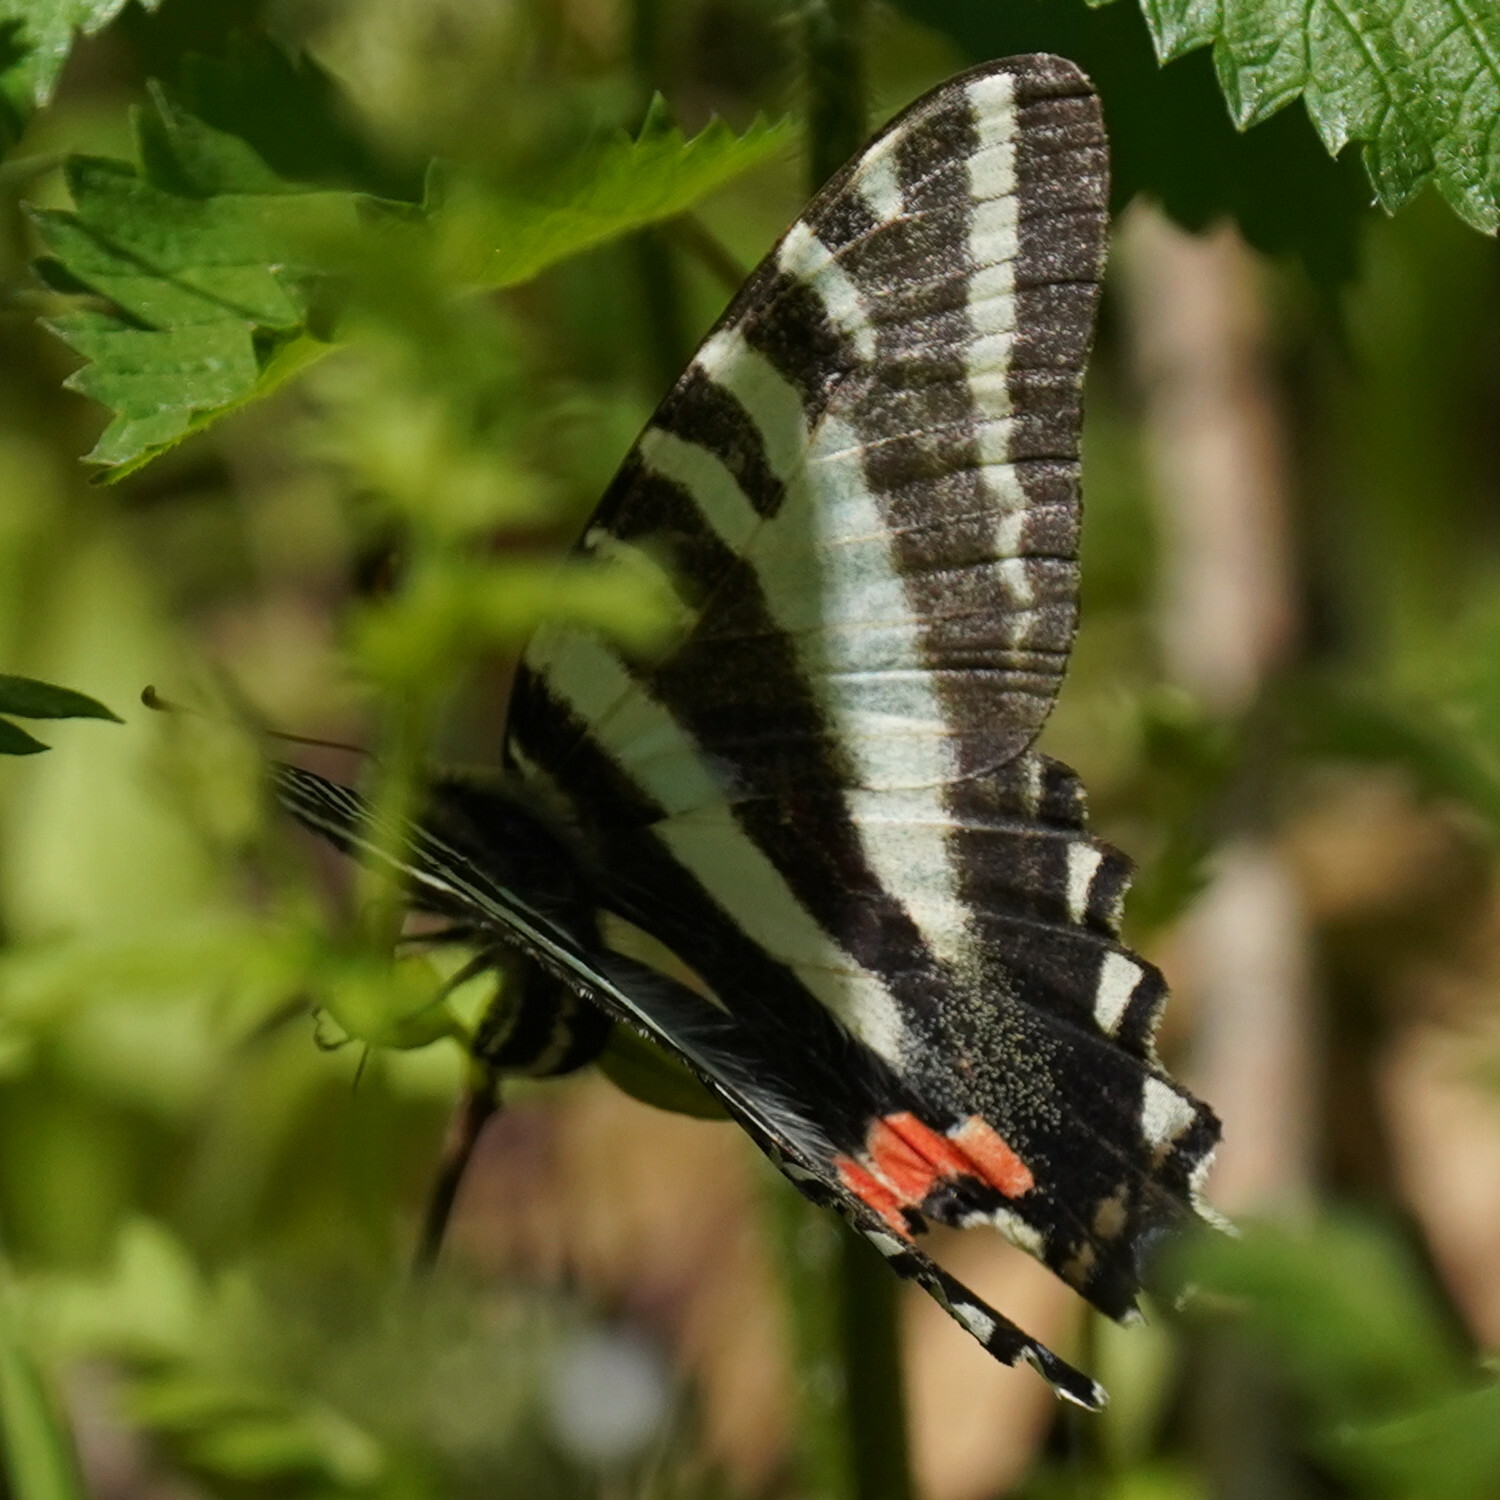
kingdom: Animalia
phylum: Arthropoda
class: Insecta
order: Lepidoptera
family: Papilionidae
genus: Protographium
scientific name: Protographium marcellus
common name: Zebra swallowtail
